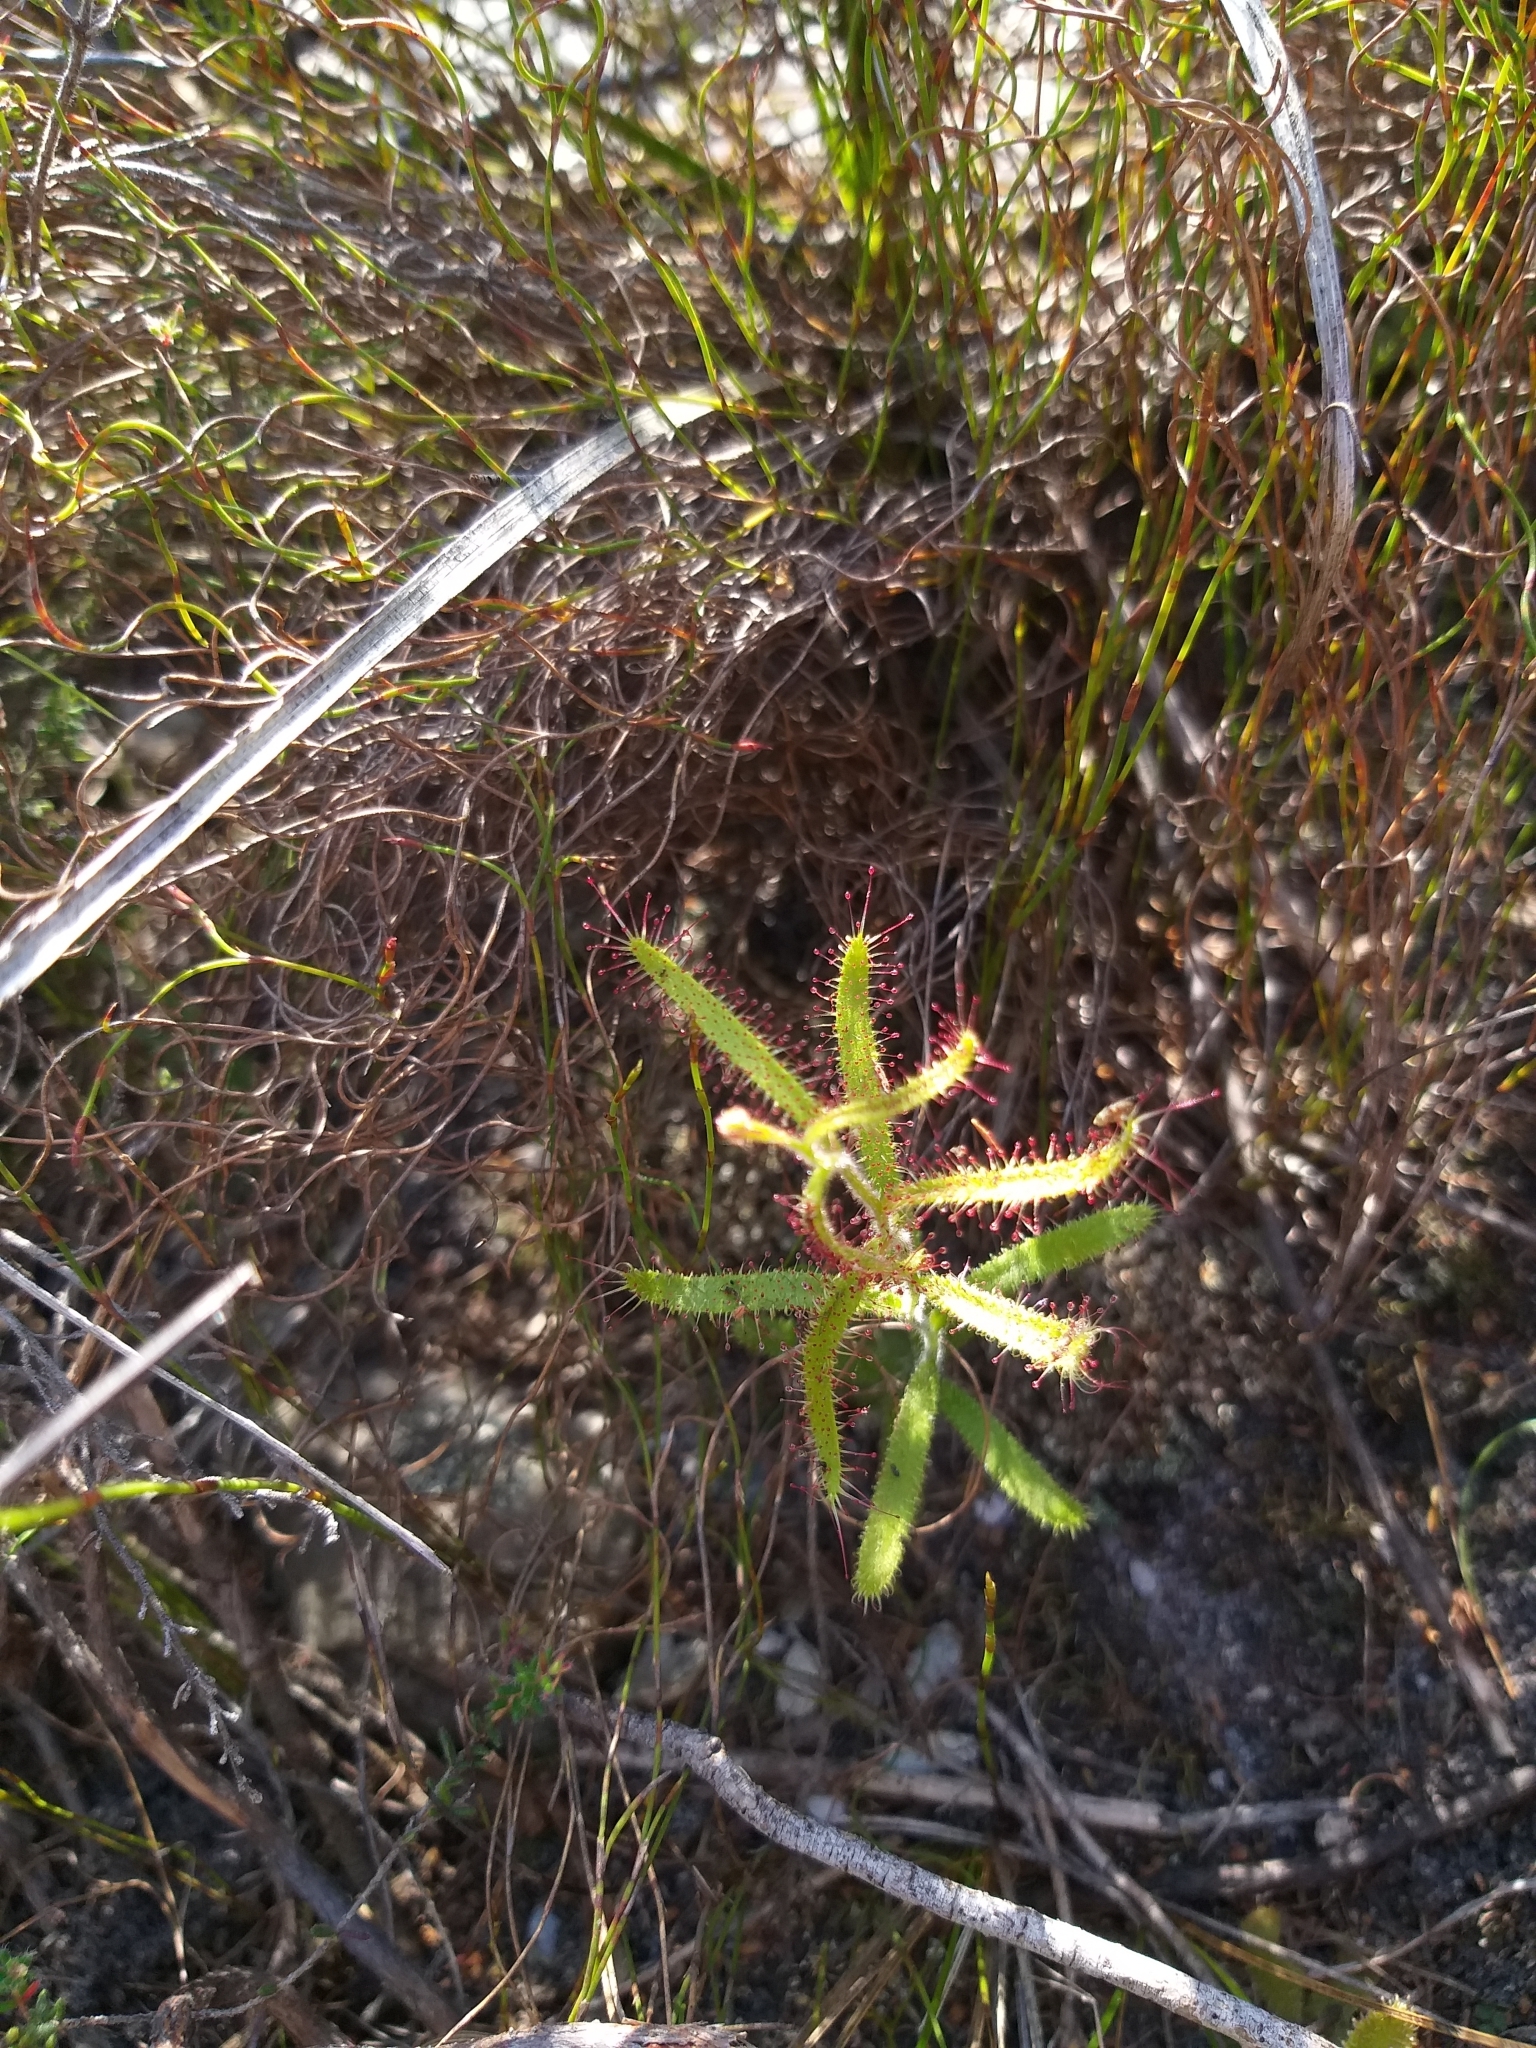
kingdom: Plantae
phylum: Tracheophyta
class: Magnoliopsida
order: Caryophyllales
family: Droseraceae
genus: Drosera
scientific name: Drosera cistiflora
